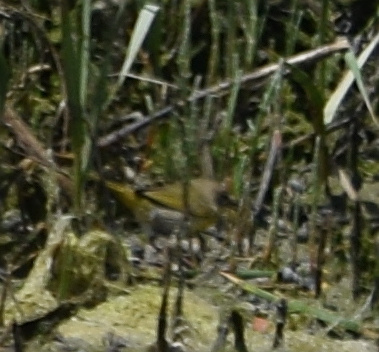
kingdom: Animalia
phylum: Chordata
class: Aves
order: Passeriformes
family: Parulidae
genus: Geothlypis
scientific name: Geothlypis trichas
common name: Common yellowthroat
